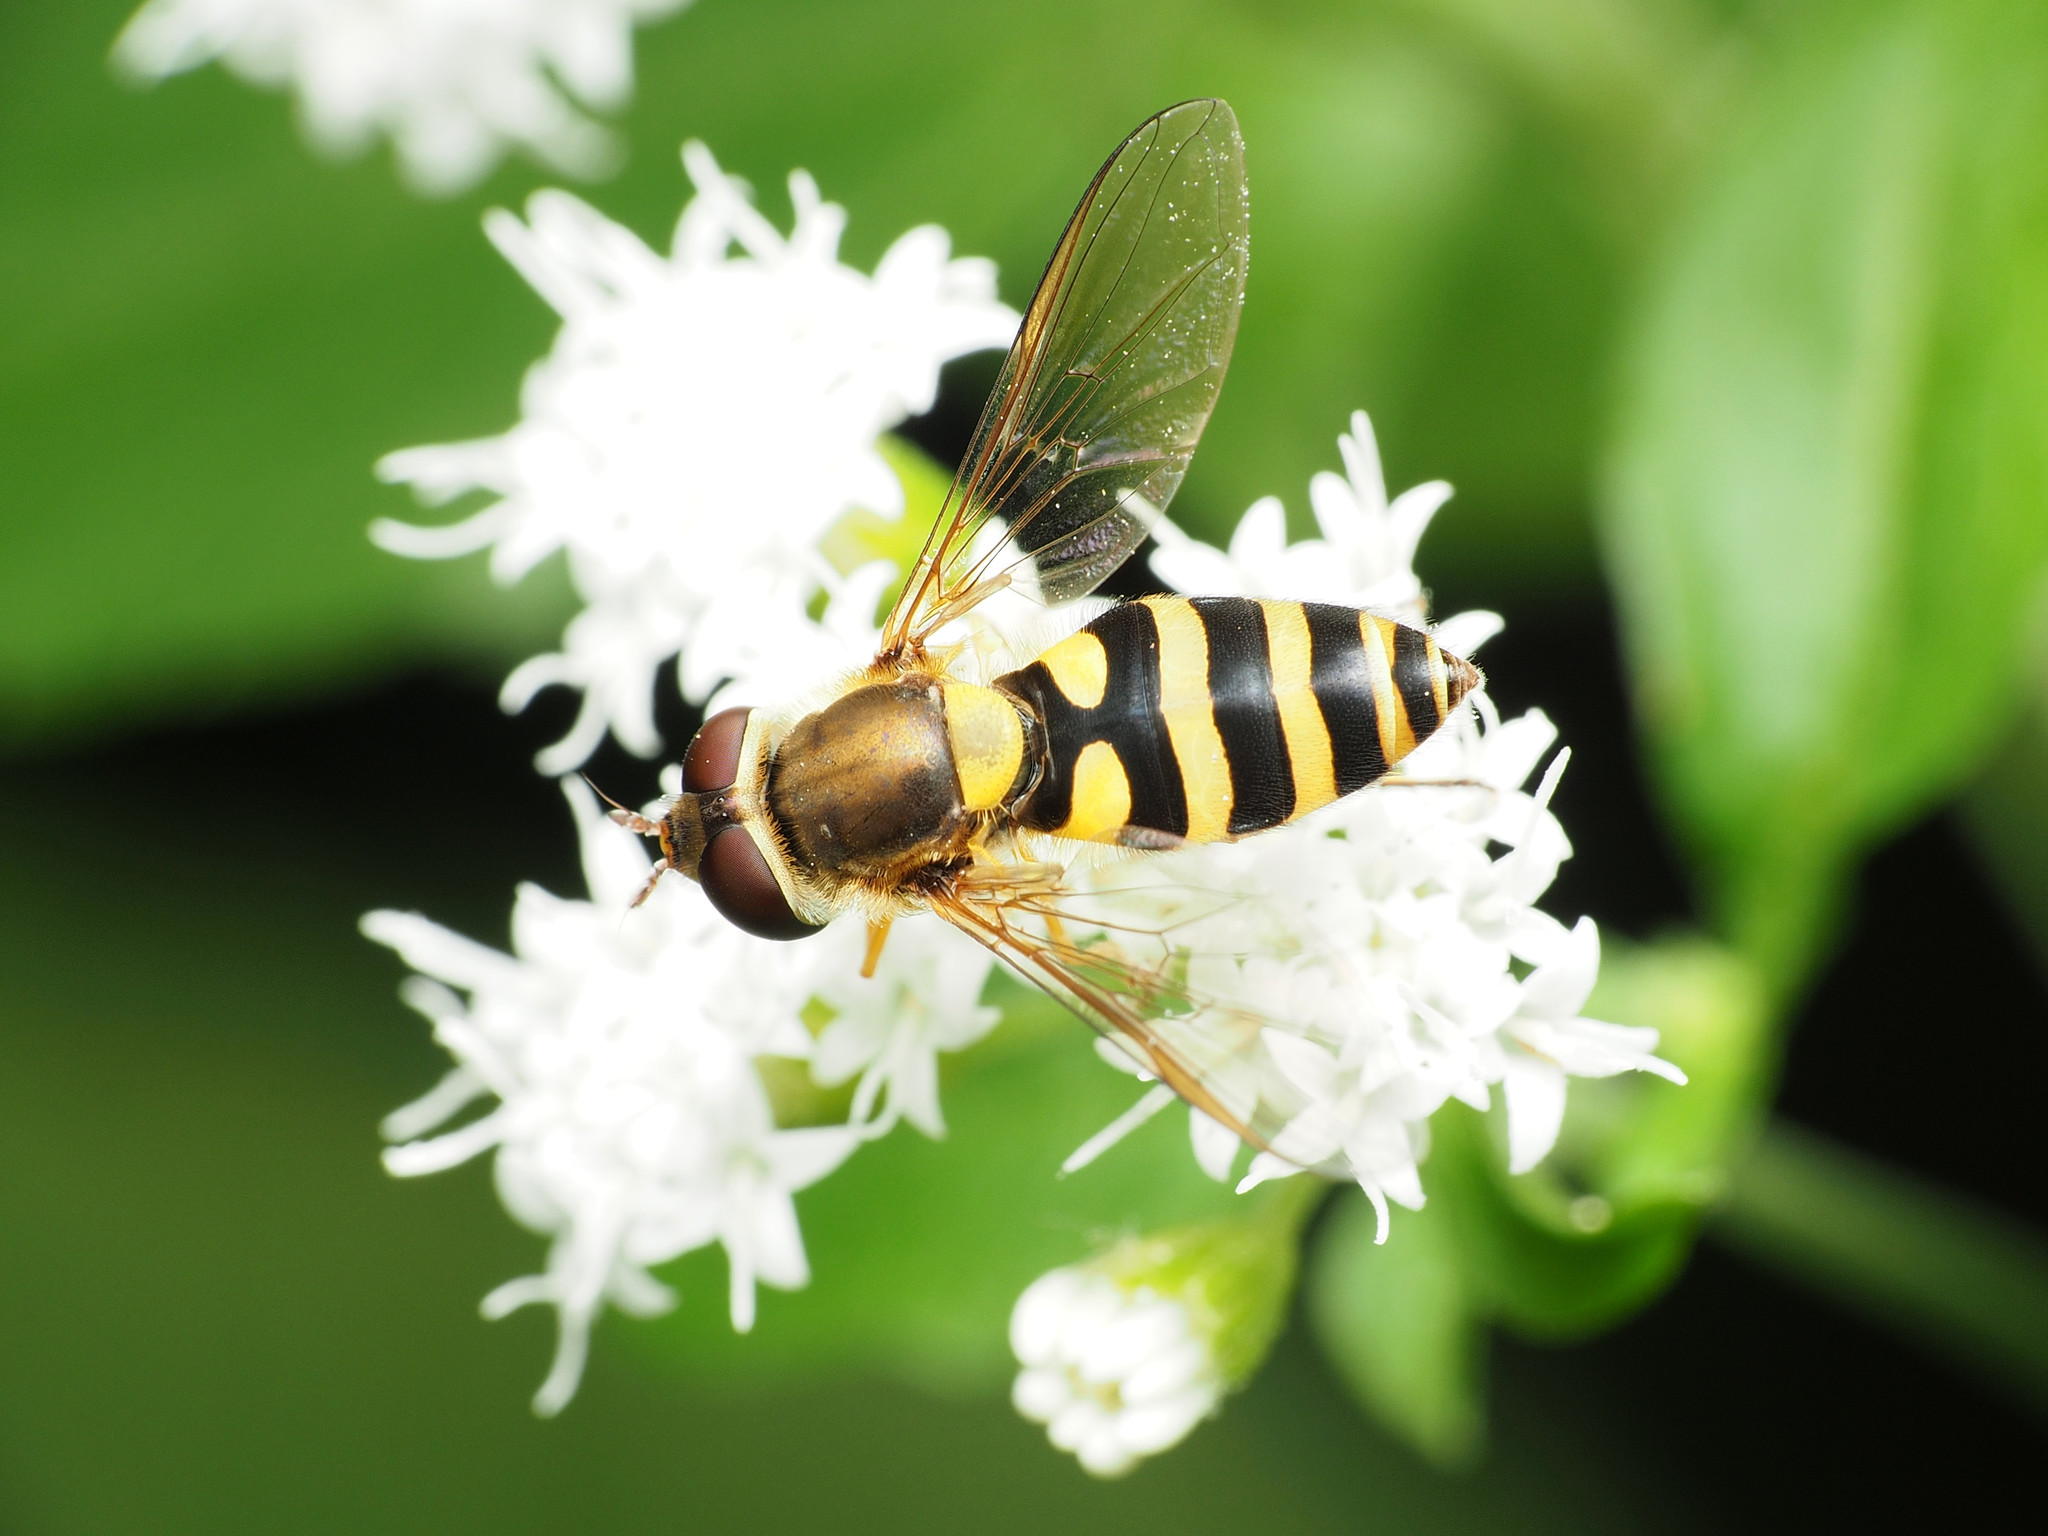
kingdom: Animalia
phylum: Arthropoda
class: Insecta
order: Diptera
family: Syrphidae
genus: Syrphus
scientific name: Syrphus rectus
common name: Yellow-legged flower fly
